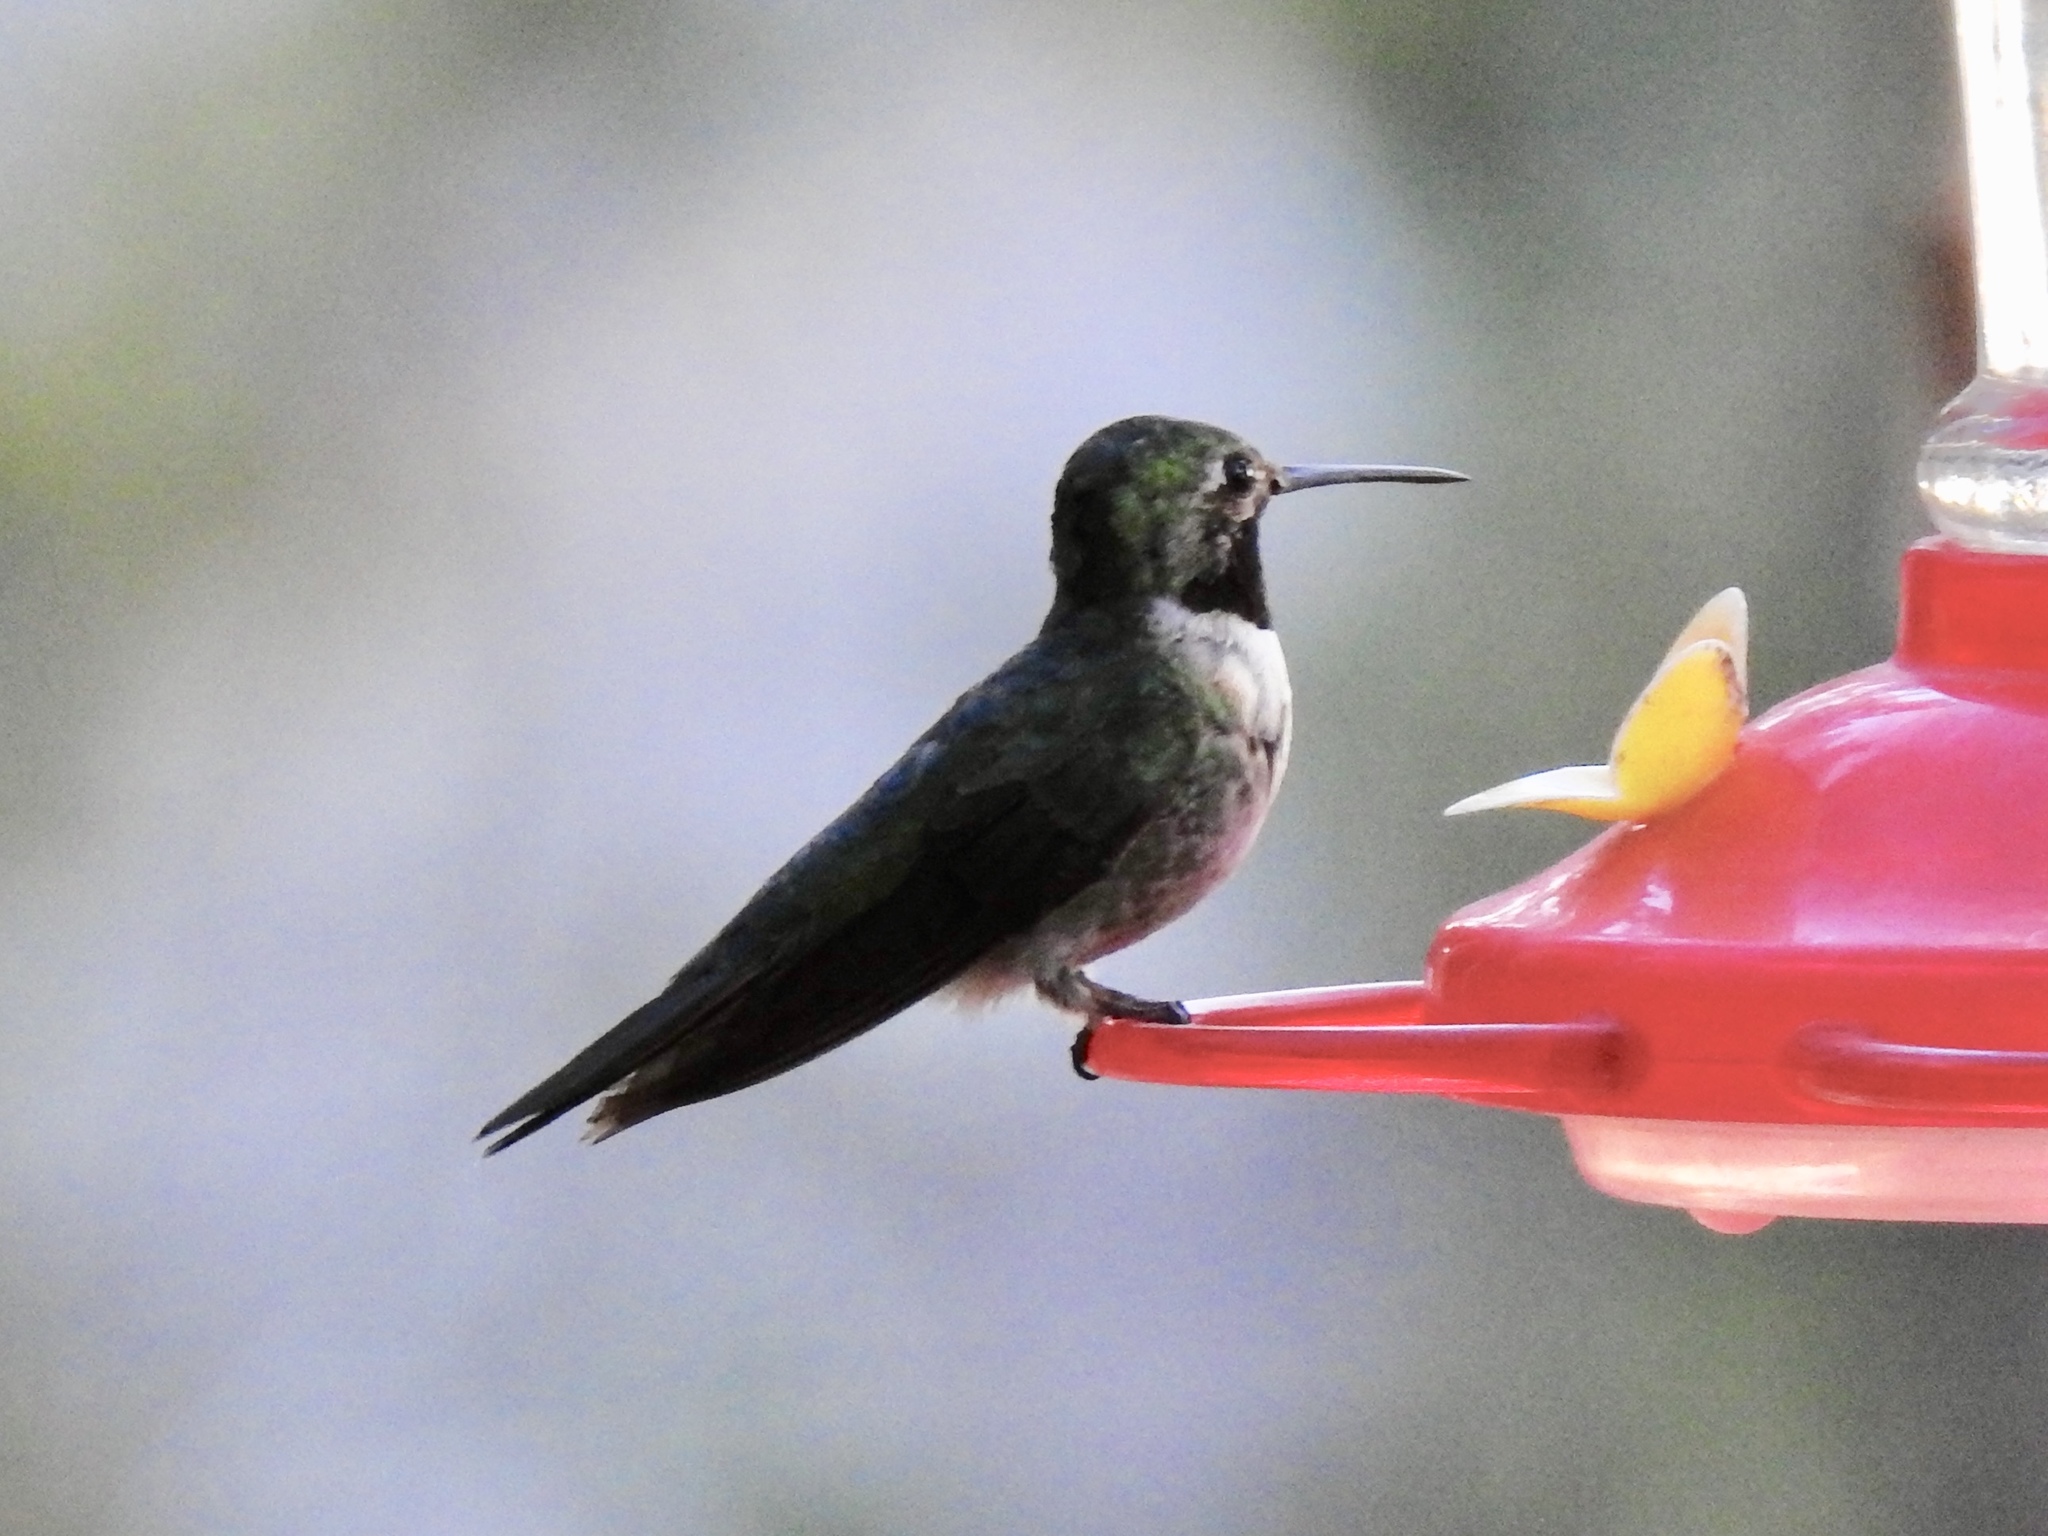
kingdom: Animalia
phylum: Chordata
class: Aves
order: Apodiformes
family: Trochilidae
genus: Selasphorus
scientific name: Selasphorus platycercus
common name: Broad-tailed hummingbird
